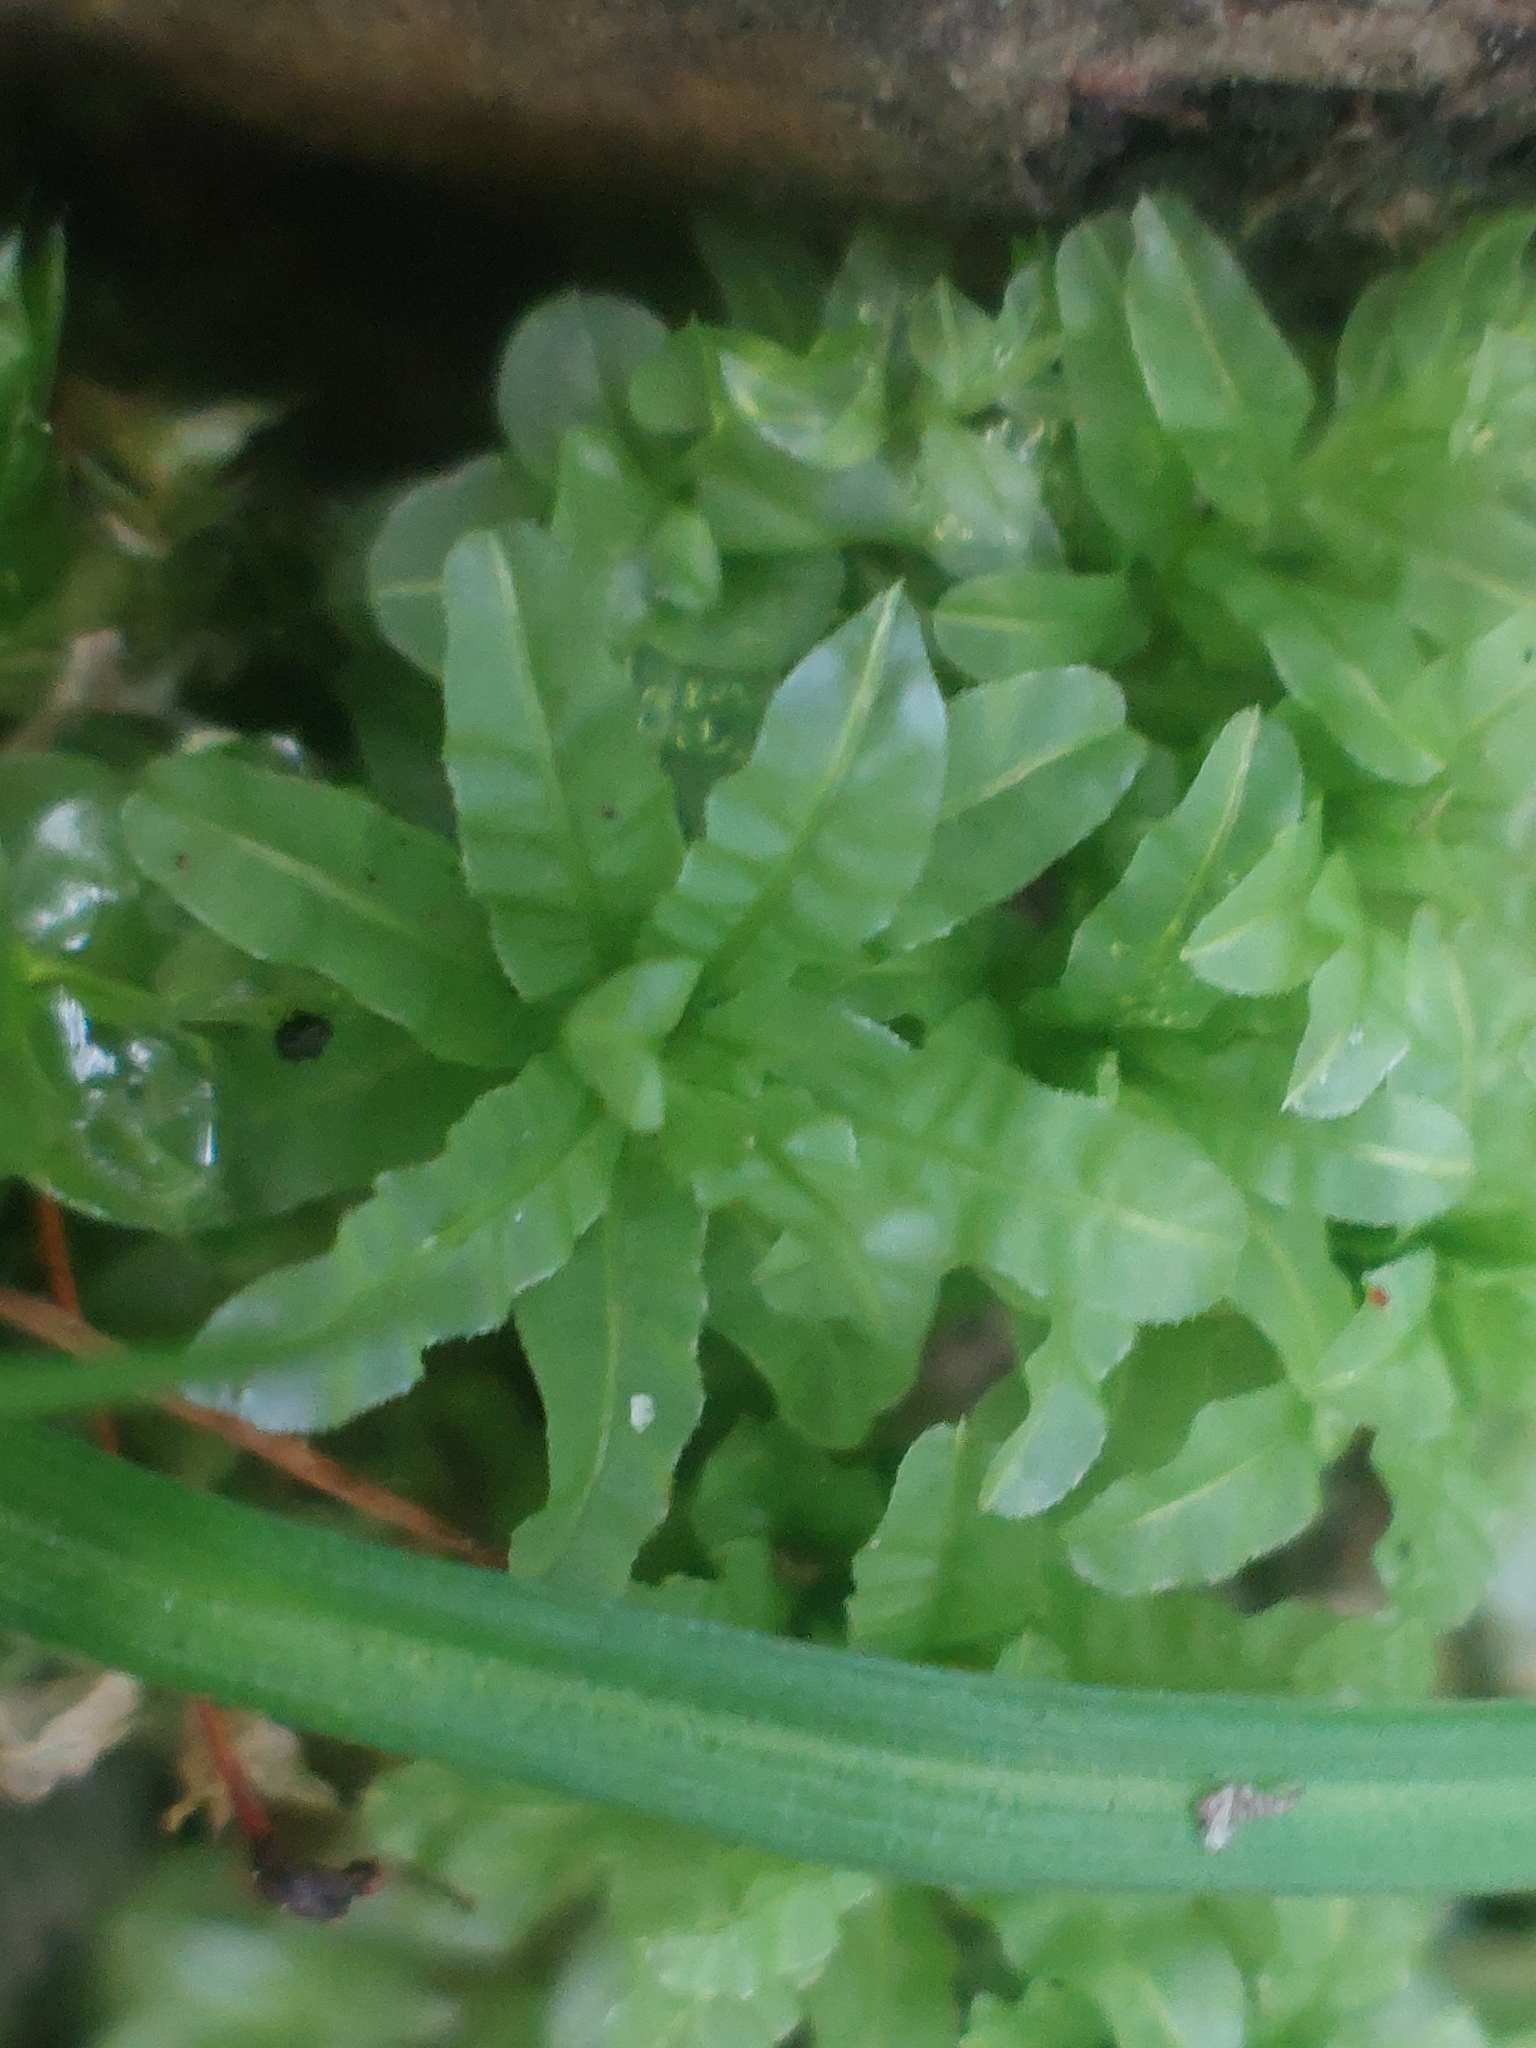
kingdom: Plantae
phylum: Bryophyta
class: Bryopsida
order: Bryales
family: Mniaceae
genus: Plagiomnium
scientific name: Plagiomnium undulatum
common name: Hart's-tongue thyme-moss
